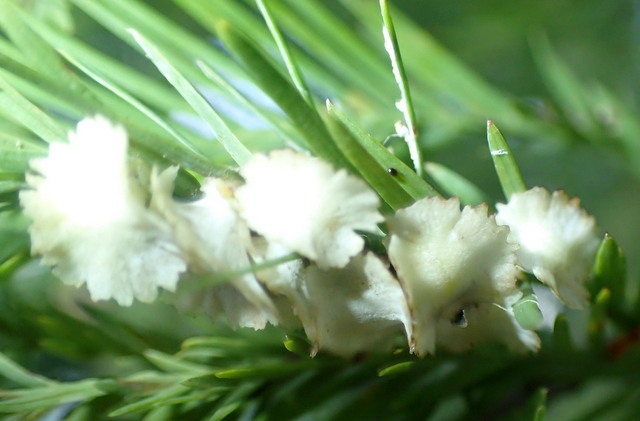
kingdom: Animalia
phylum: Arthropoda
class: Insecta
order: Diptera
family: Cecidomyiidae
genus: Taxodiomyia
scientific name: Taxodiomyia cupressi
